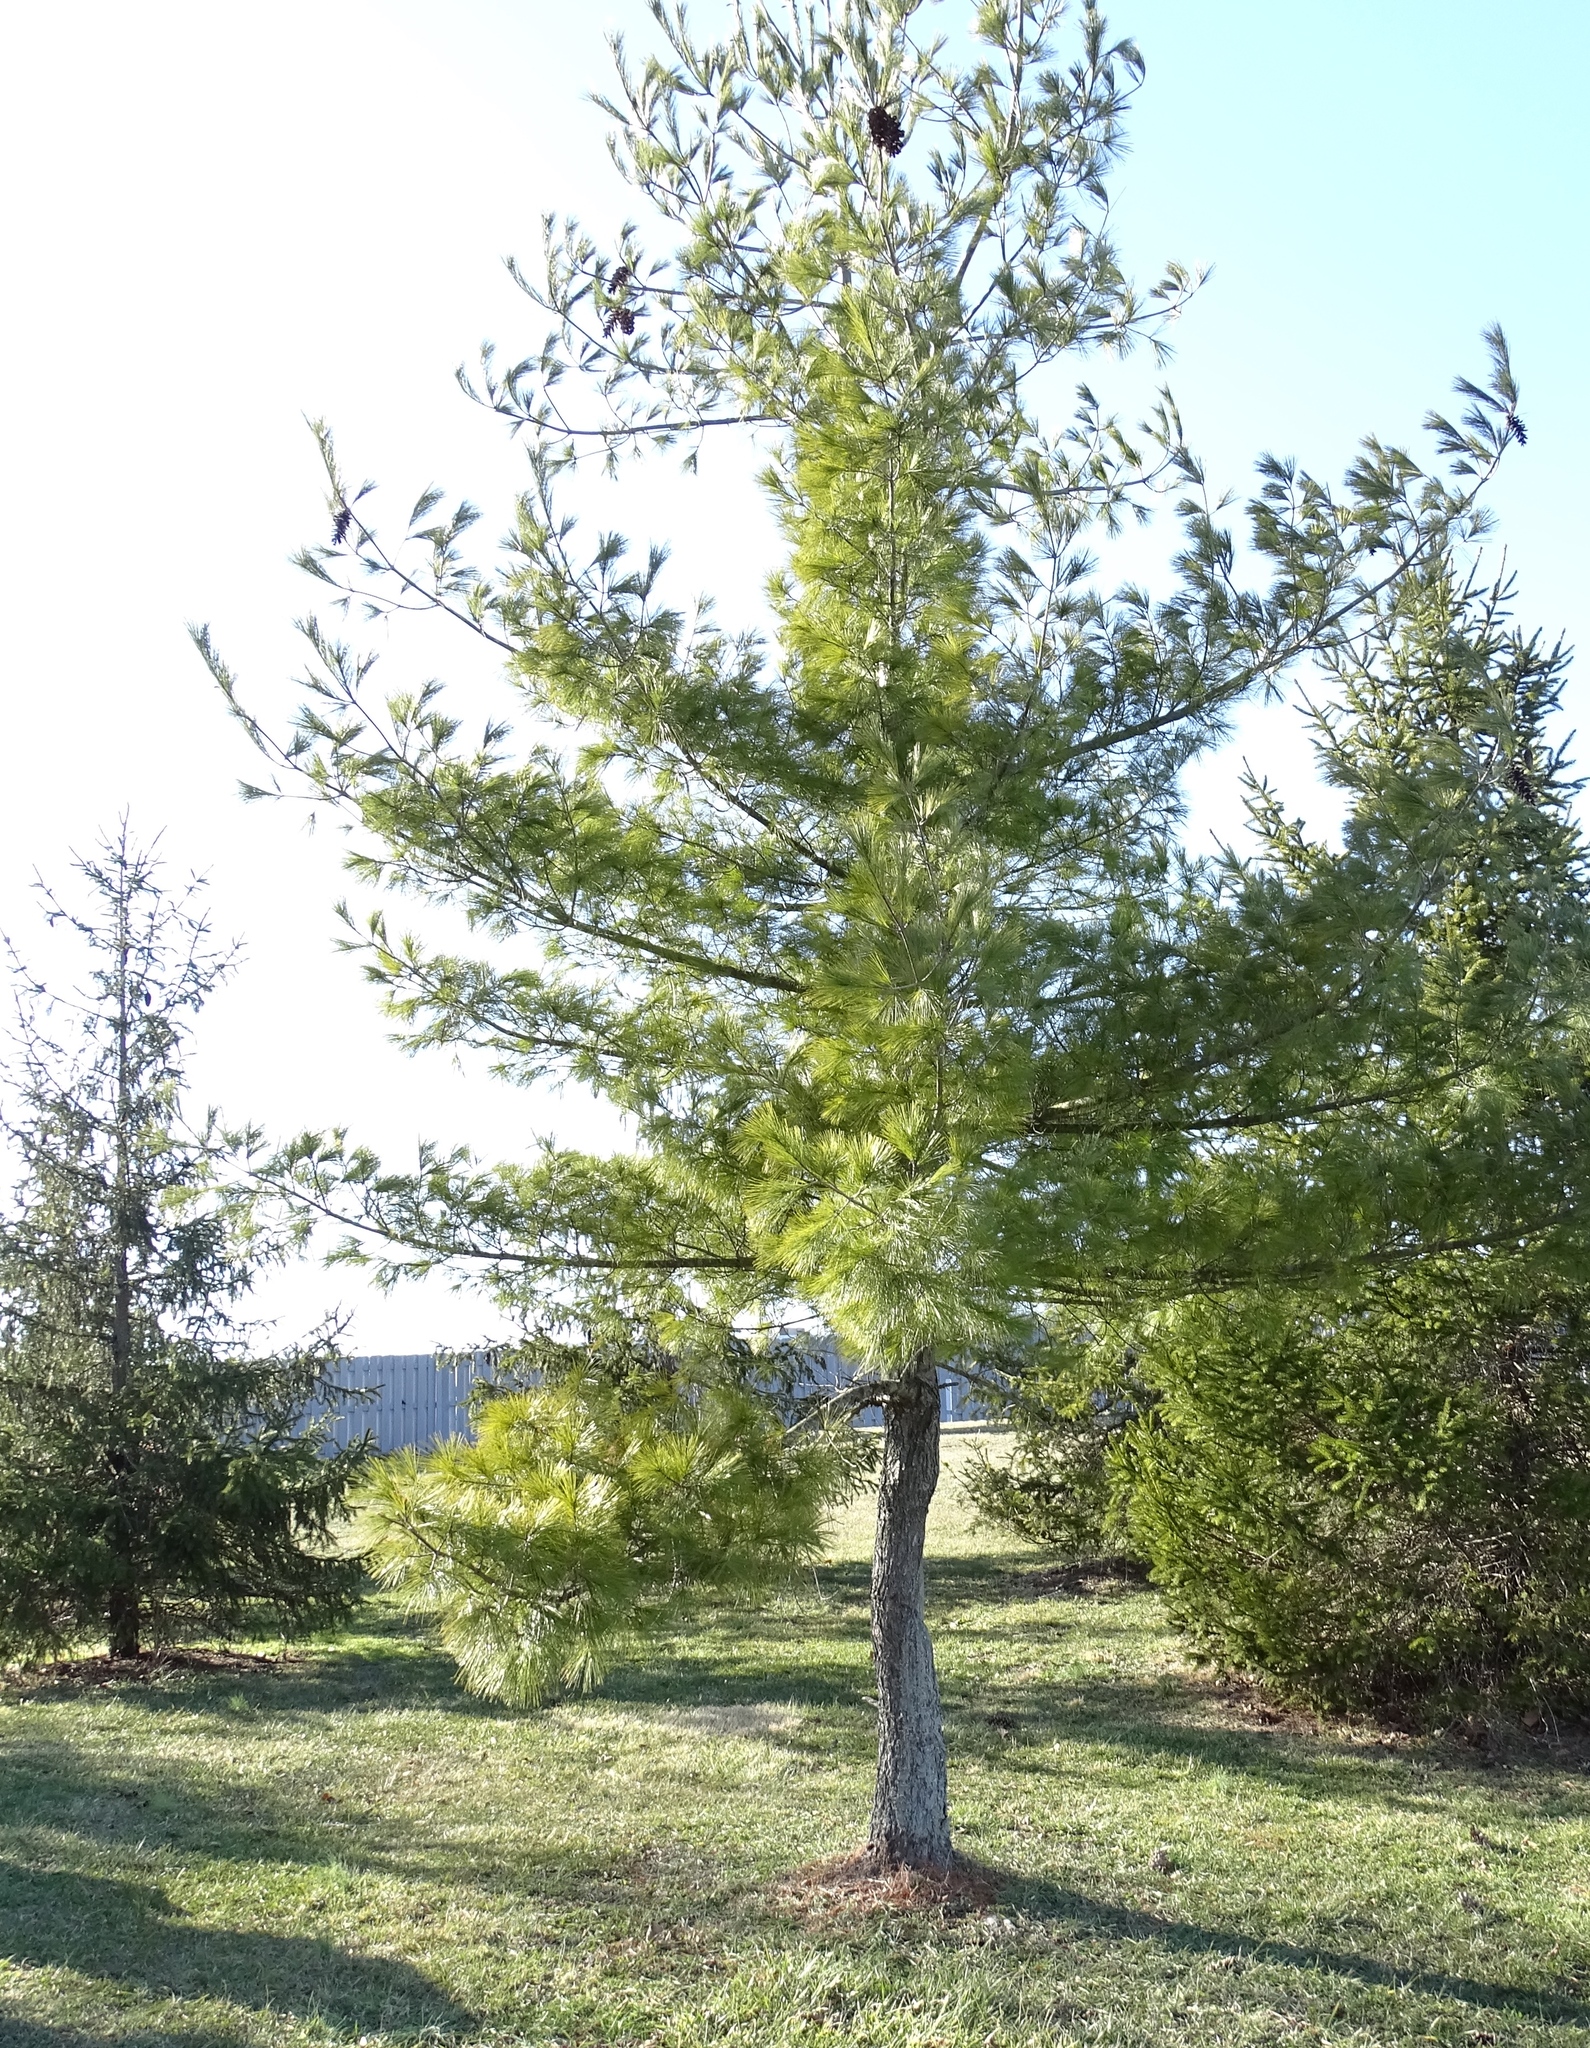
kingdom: Plantae
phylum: Tracheophyta
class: Pinopsida
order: Pinales
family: Pinaceae
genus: Pinus
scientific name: Pinus strobus
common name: Weymouth pine
